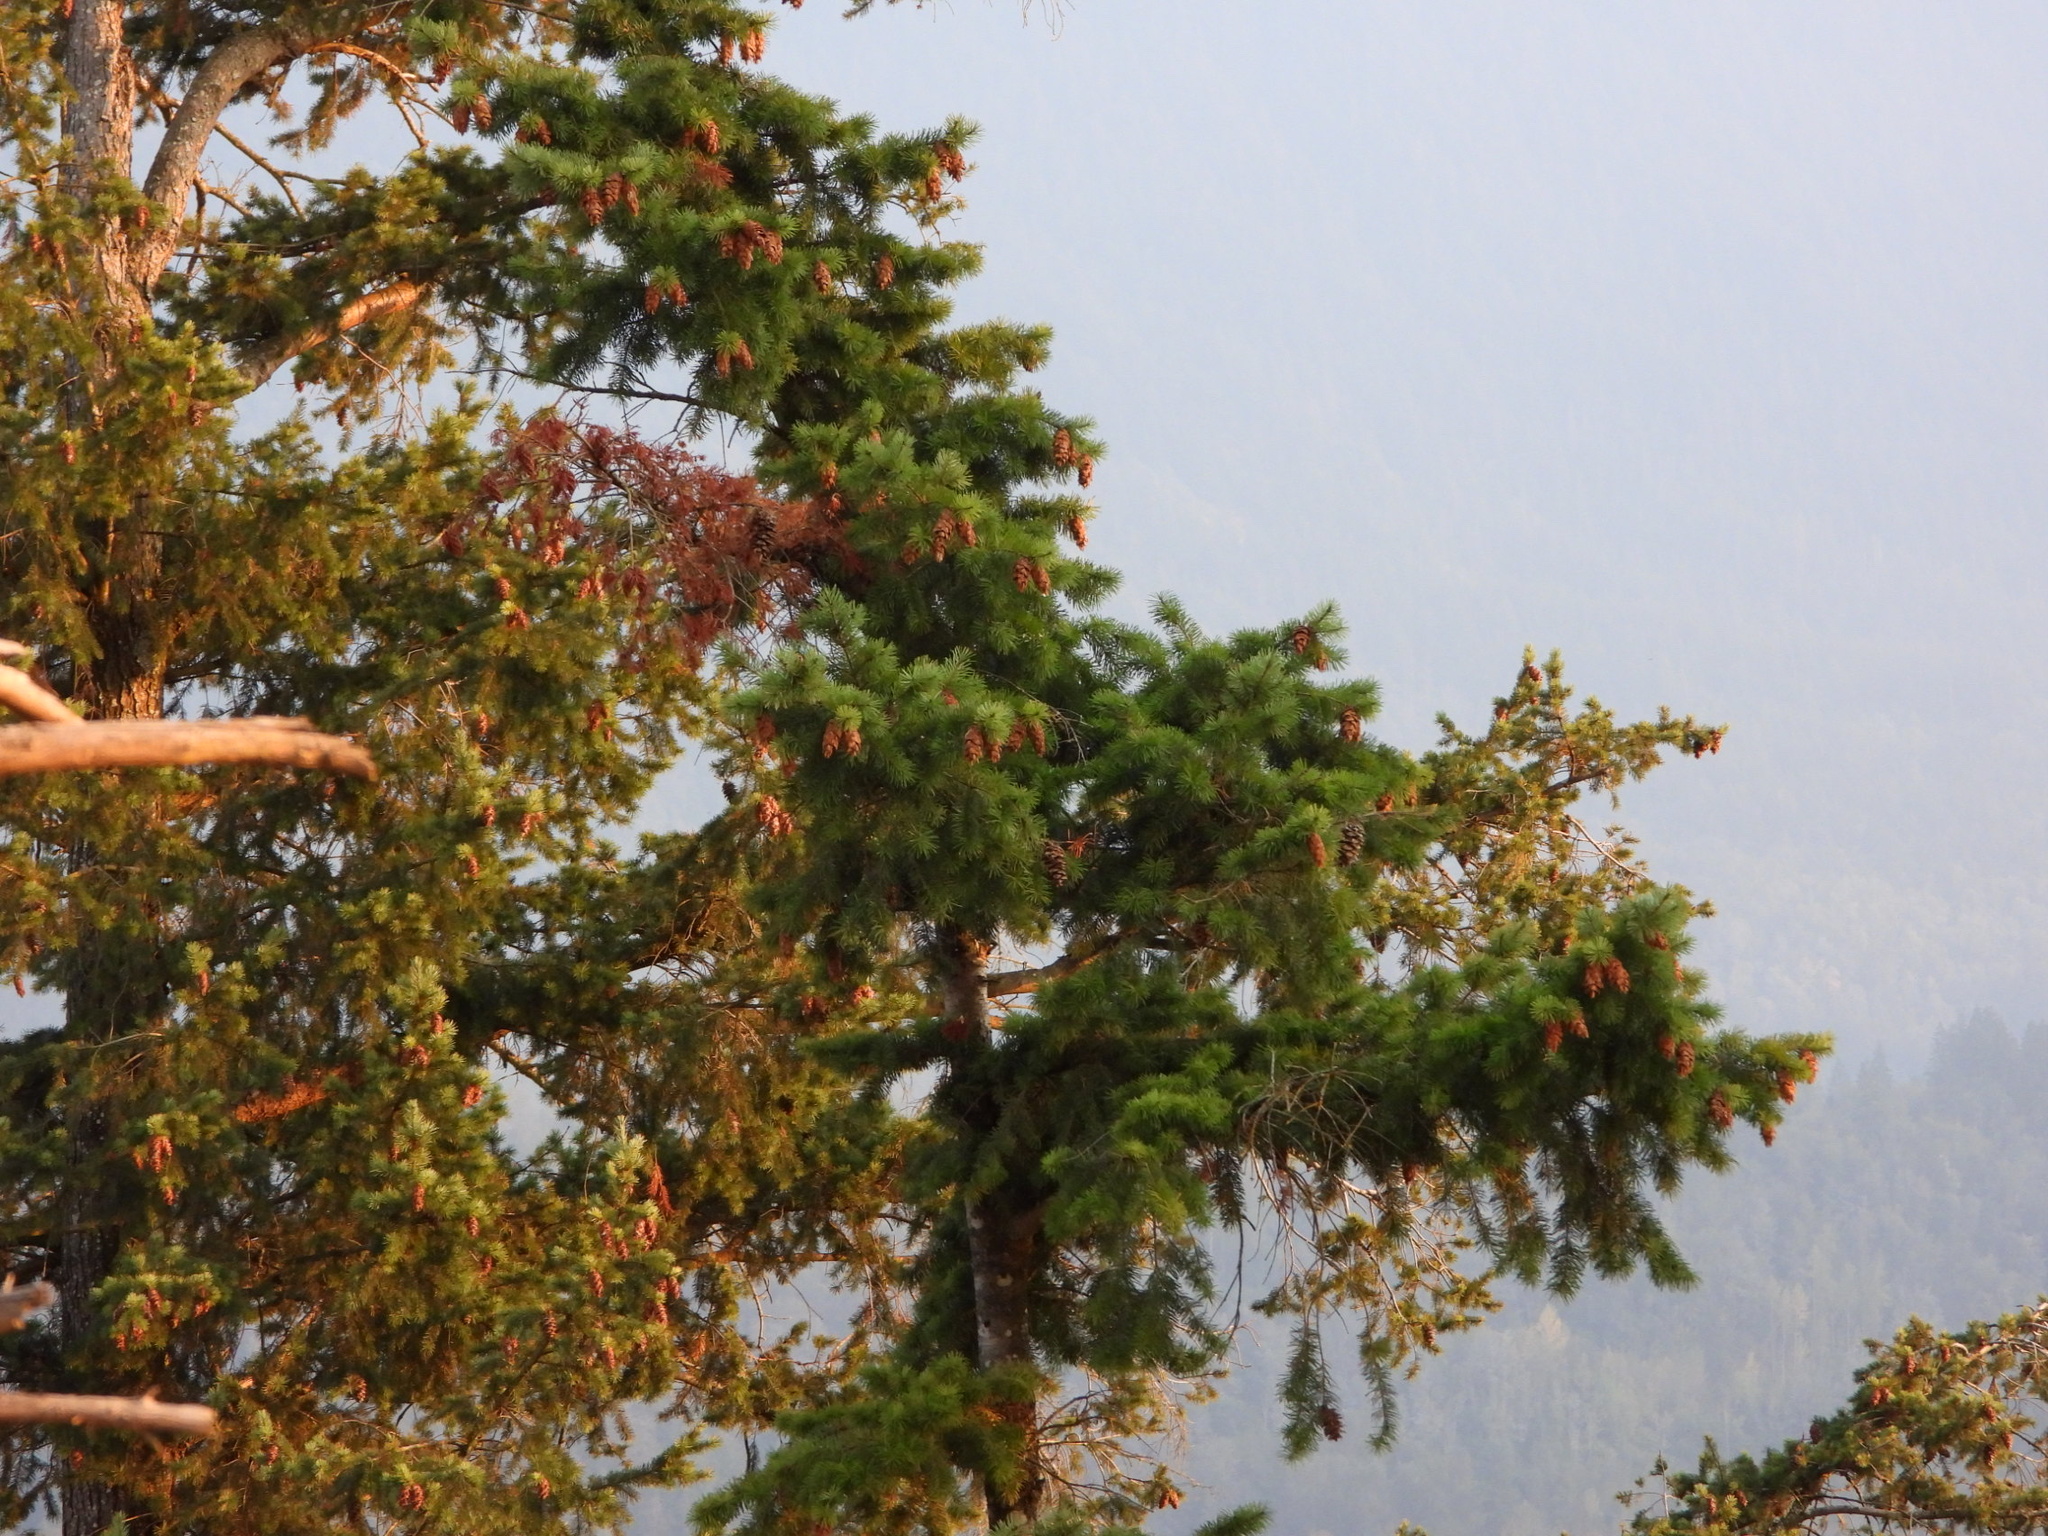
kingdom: Plantae
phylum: Tracheophyta
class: Pinopsida
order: Pinales
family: Pinaceae
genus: Pseudotsuga
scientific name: Pseudotsuga menziesii
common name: Douglas fir
